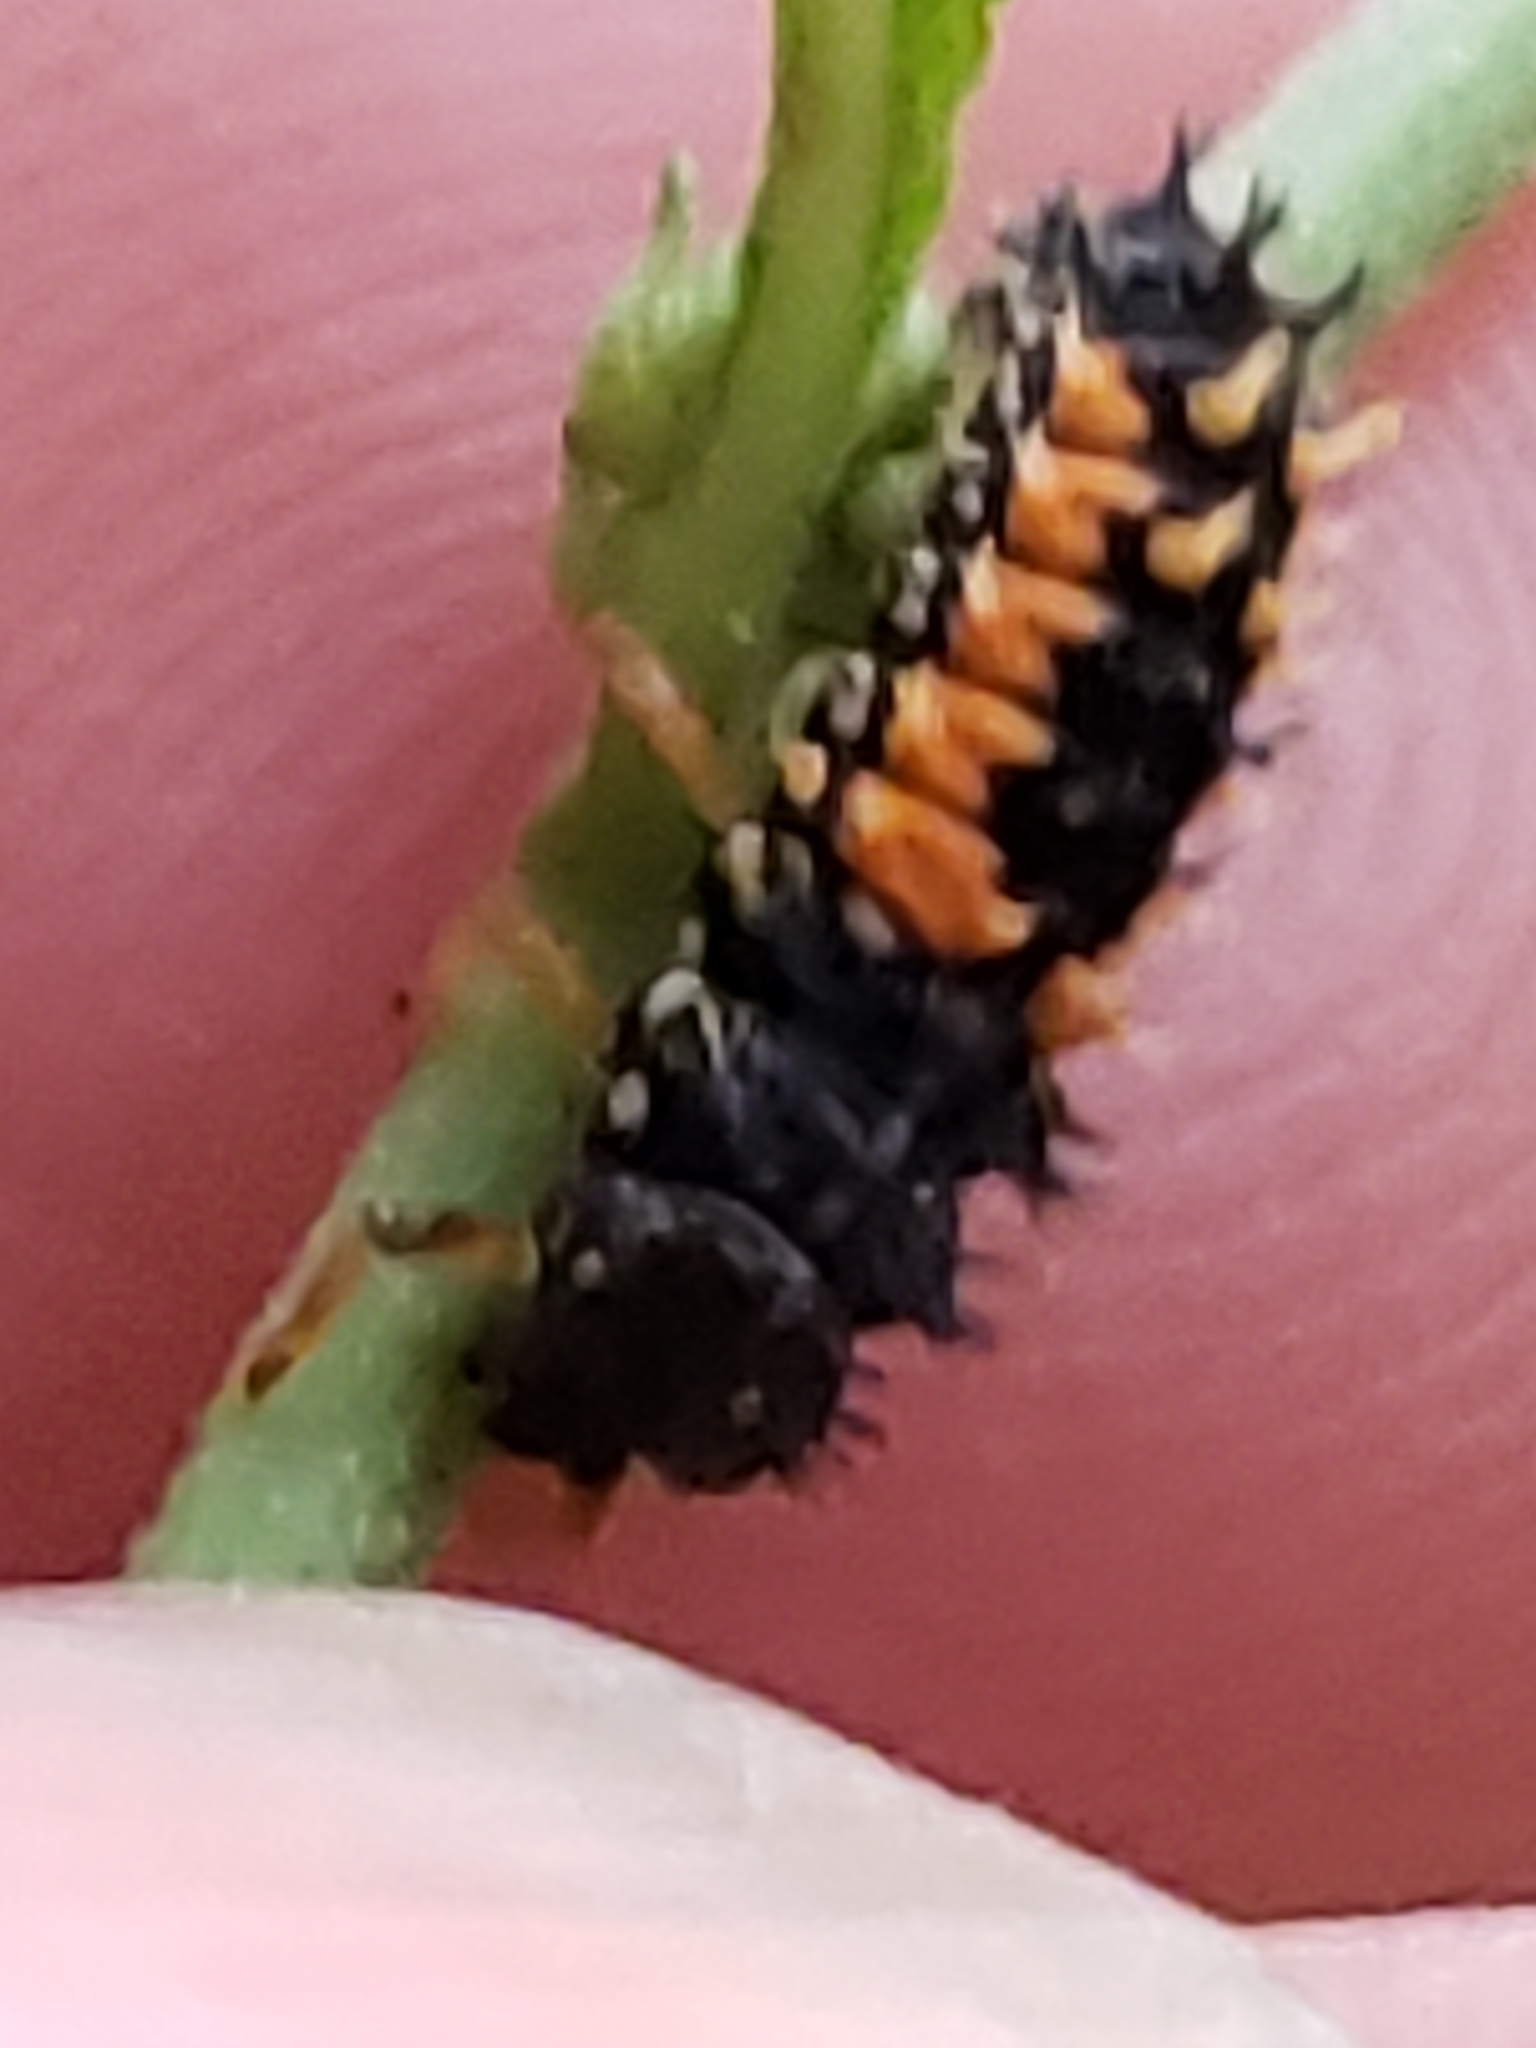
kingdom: Animalia
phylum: Arthropoda
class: Insecta
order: Coleoptera
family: Coccinellidae
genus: Harmonia
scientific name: Harmonia axyridis
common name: Harlequin ladybird
